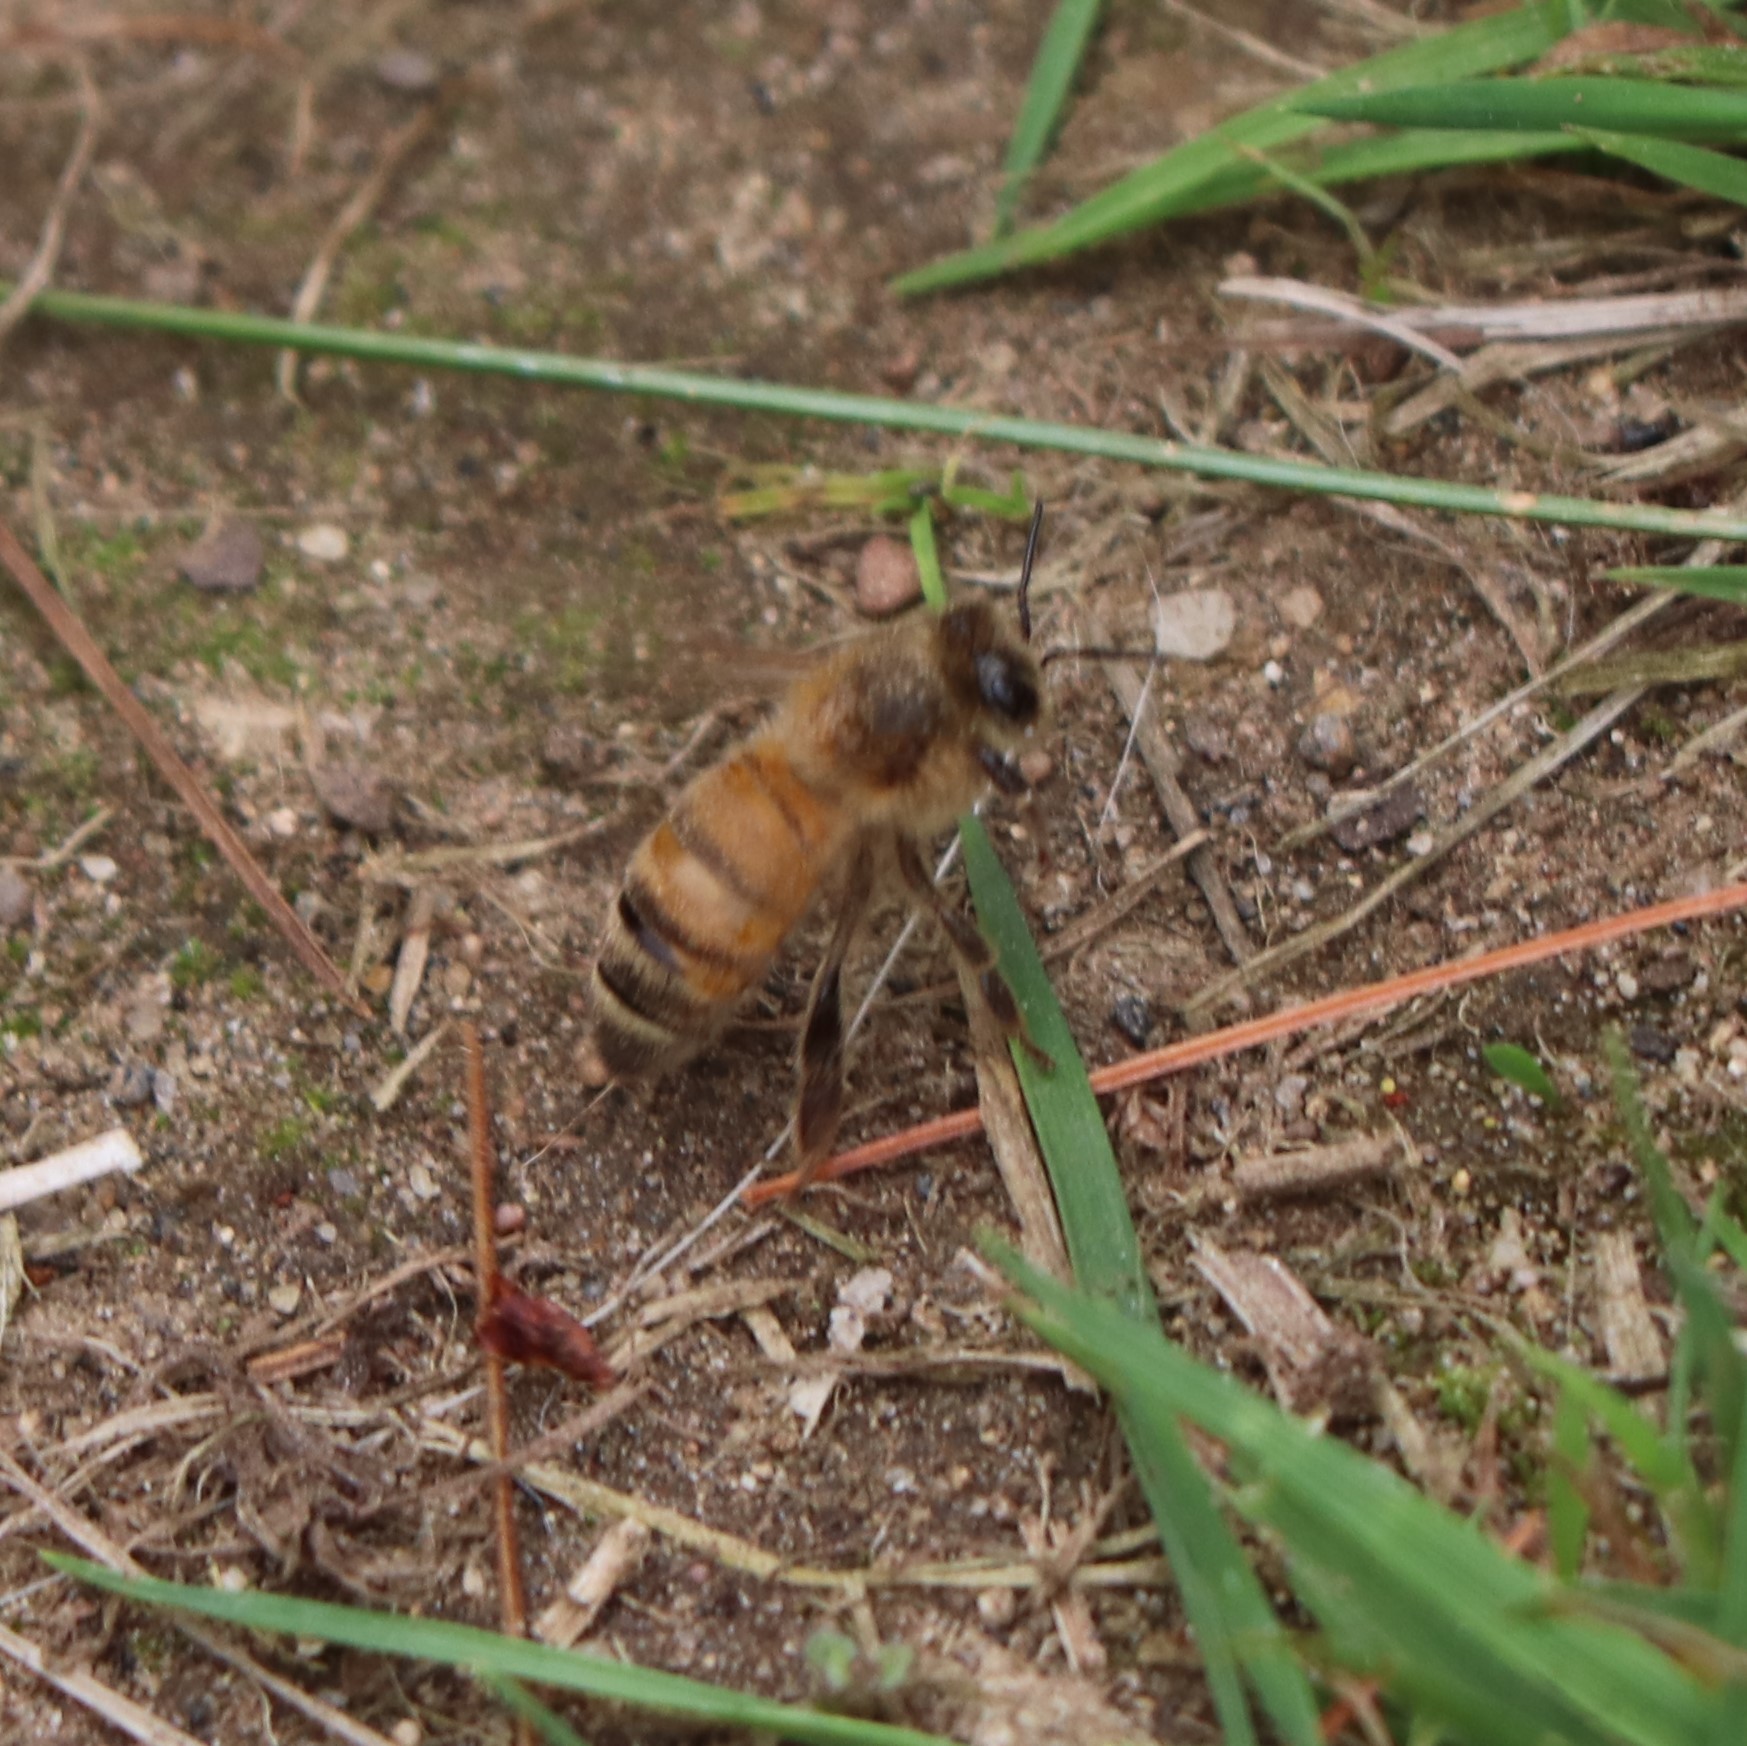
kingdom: Animalia
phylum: Arthropoda
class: Insecta
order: Hymenoptera
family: Apidae
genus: Apis
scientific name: Apis mellifera
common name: Honey bee
